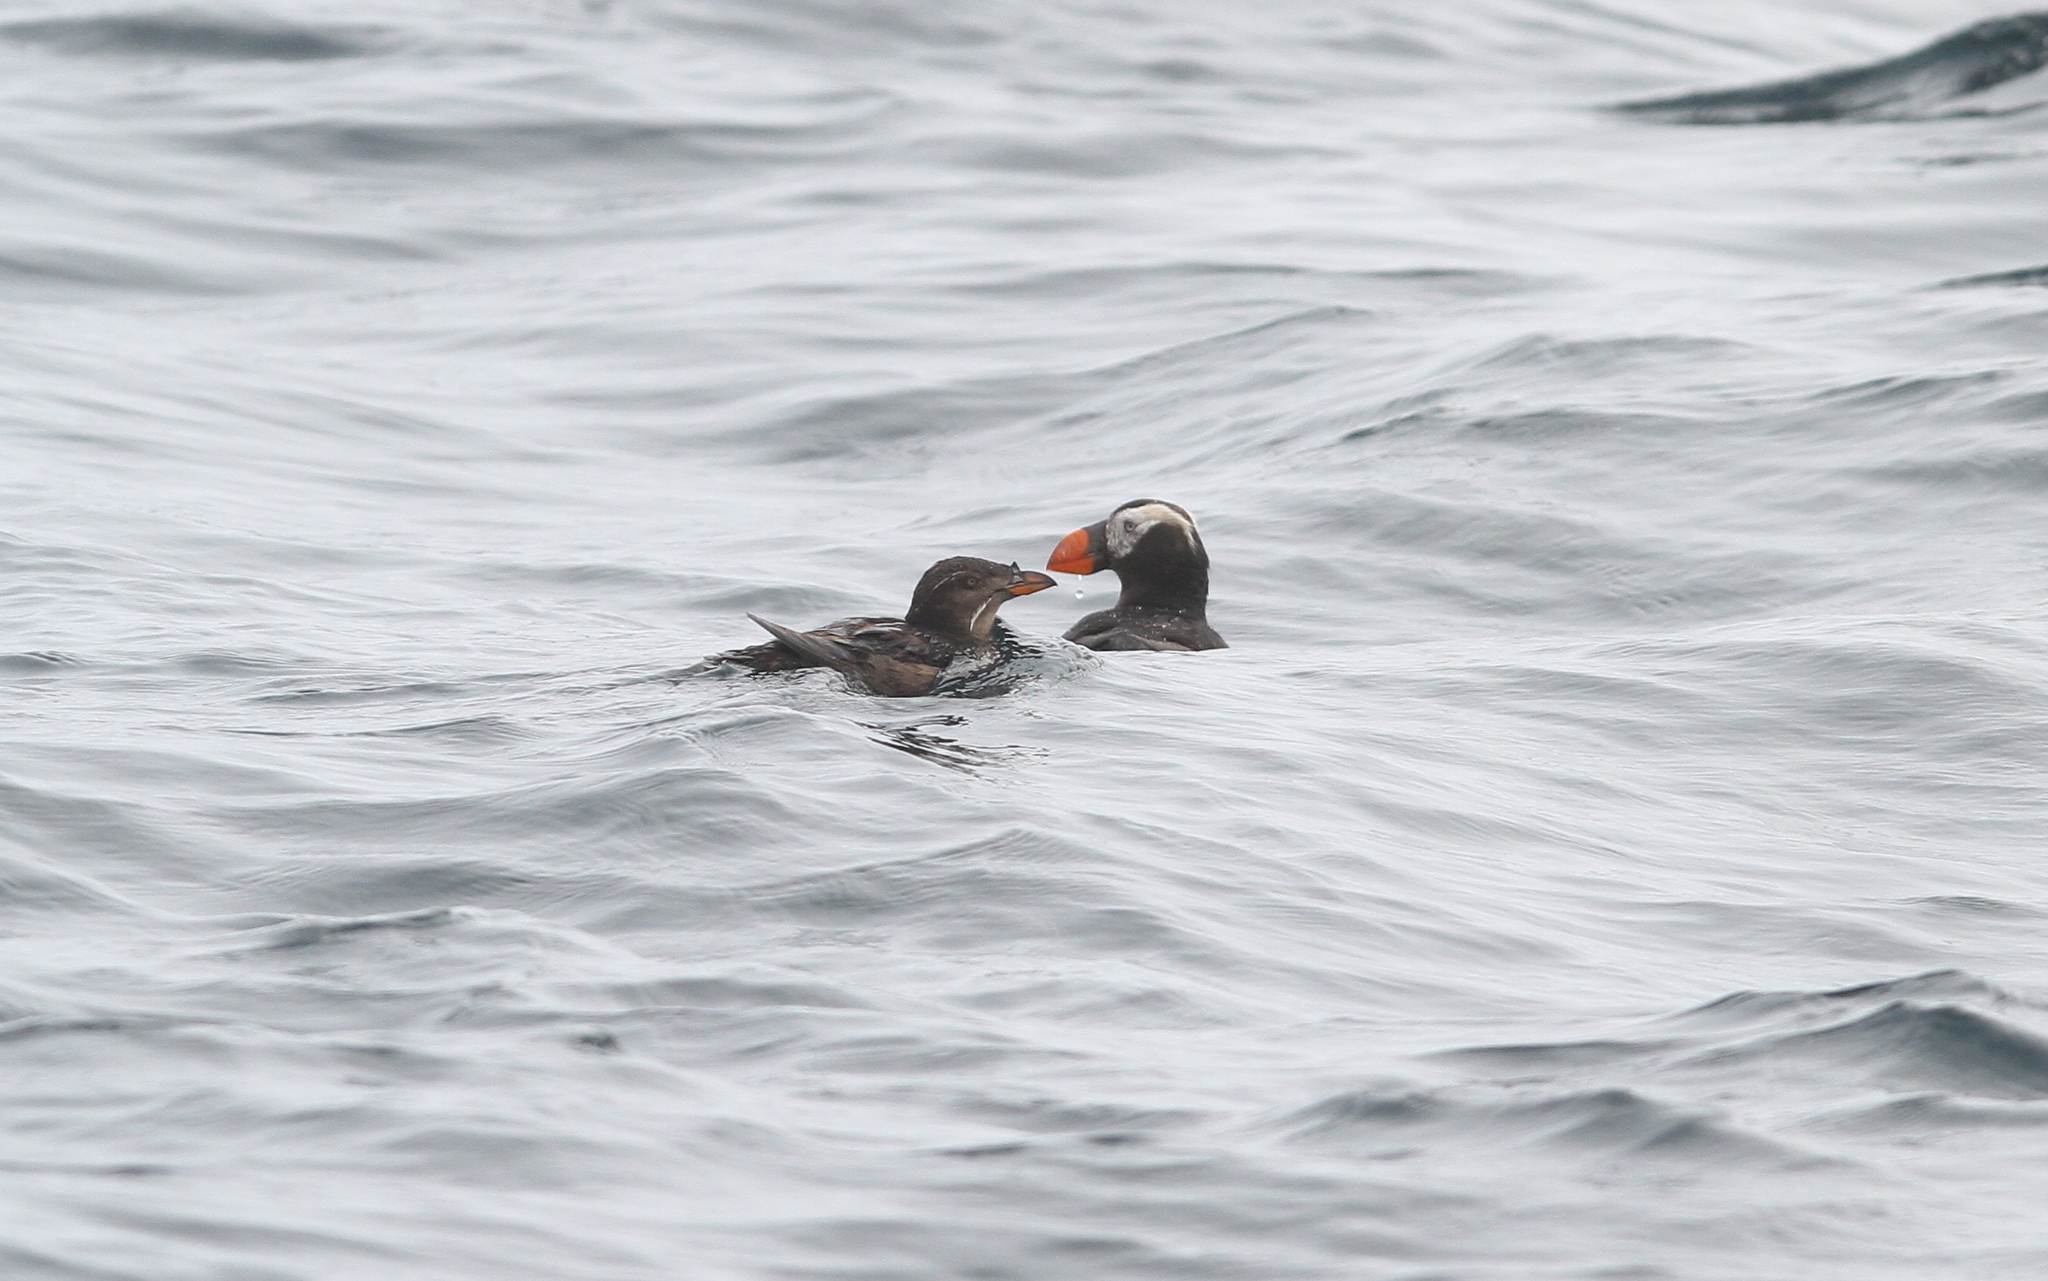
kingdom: Animalia
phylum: Chordata
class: Aves
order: Charadriiformes
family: Alcidae
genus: Fratercula
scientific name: Fratercula cirrhata
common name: Tufted puffin
